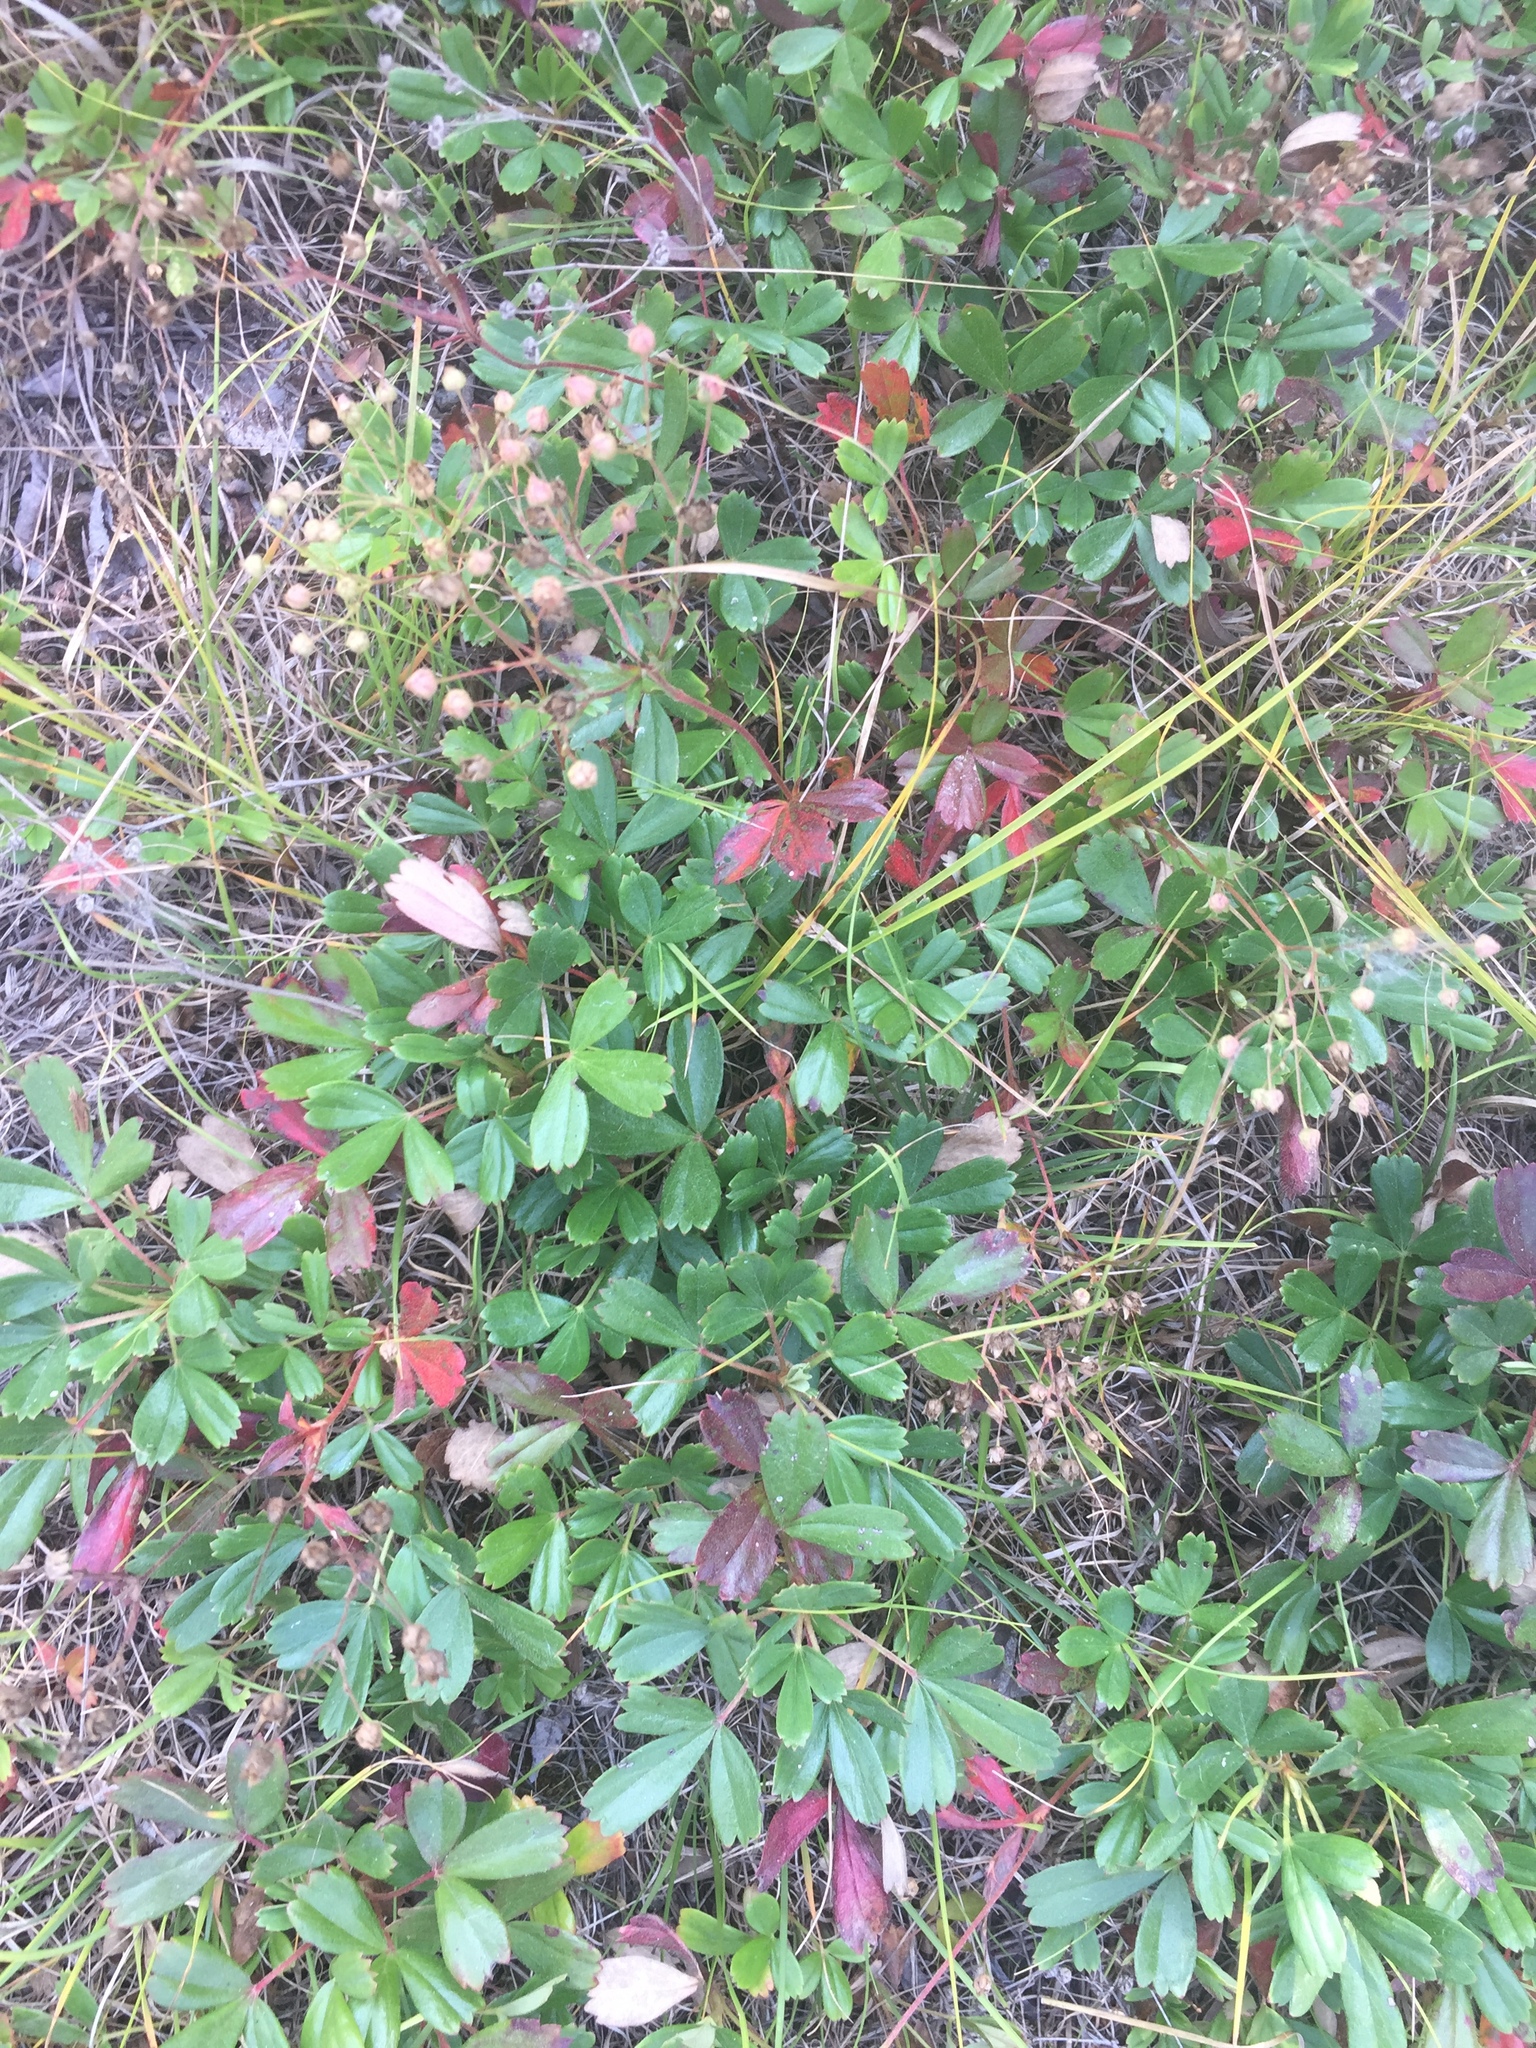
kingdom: Plantae
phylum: Tracheophyta
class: Magnoliopsida
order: Rosales
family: Rosaceae
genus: Sibbaldia
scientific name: Sibbaldia tridentata
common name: Three-toothed cinquefoil
